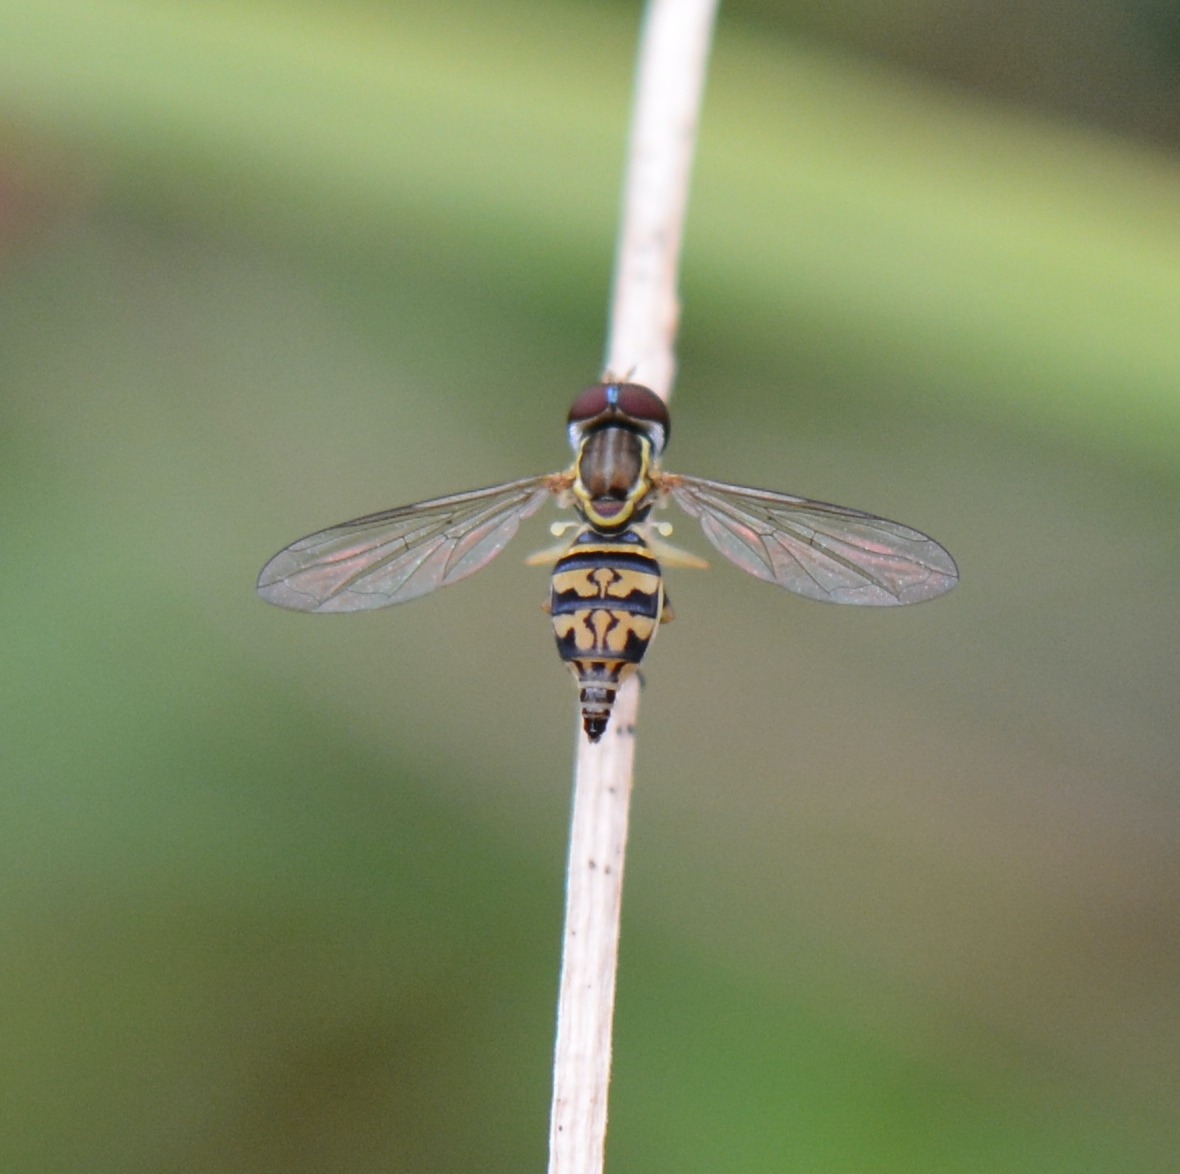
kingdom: Animalia
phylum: Arthropoda
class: Insecta
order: Diptera
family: Syrphidae
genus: Toxomerus
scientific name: Toxomerus geminatus
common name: Eastern calligrapher
